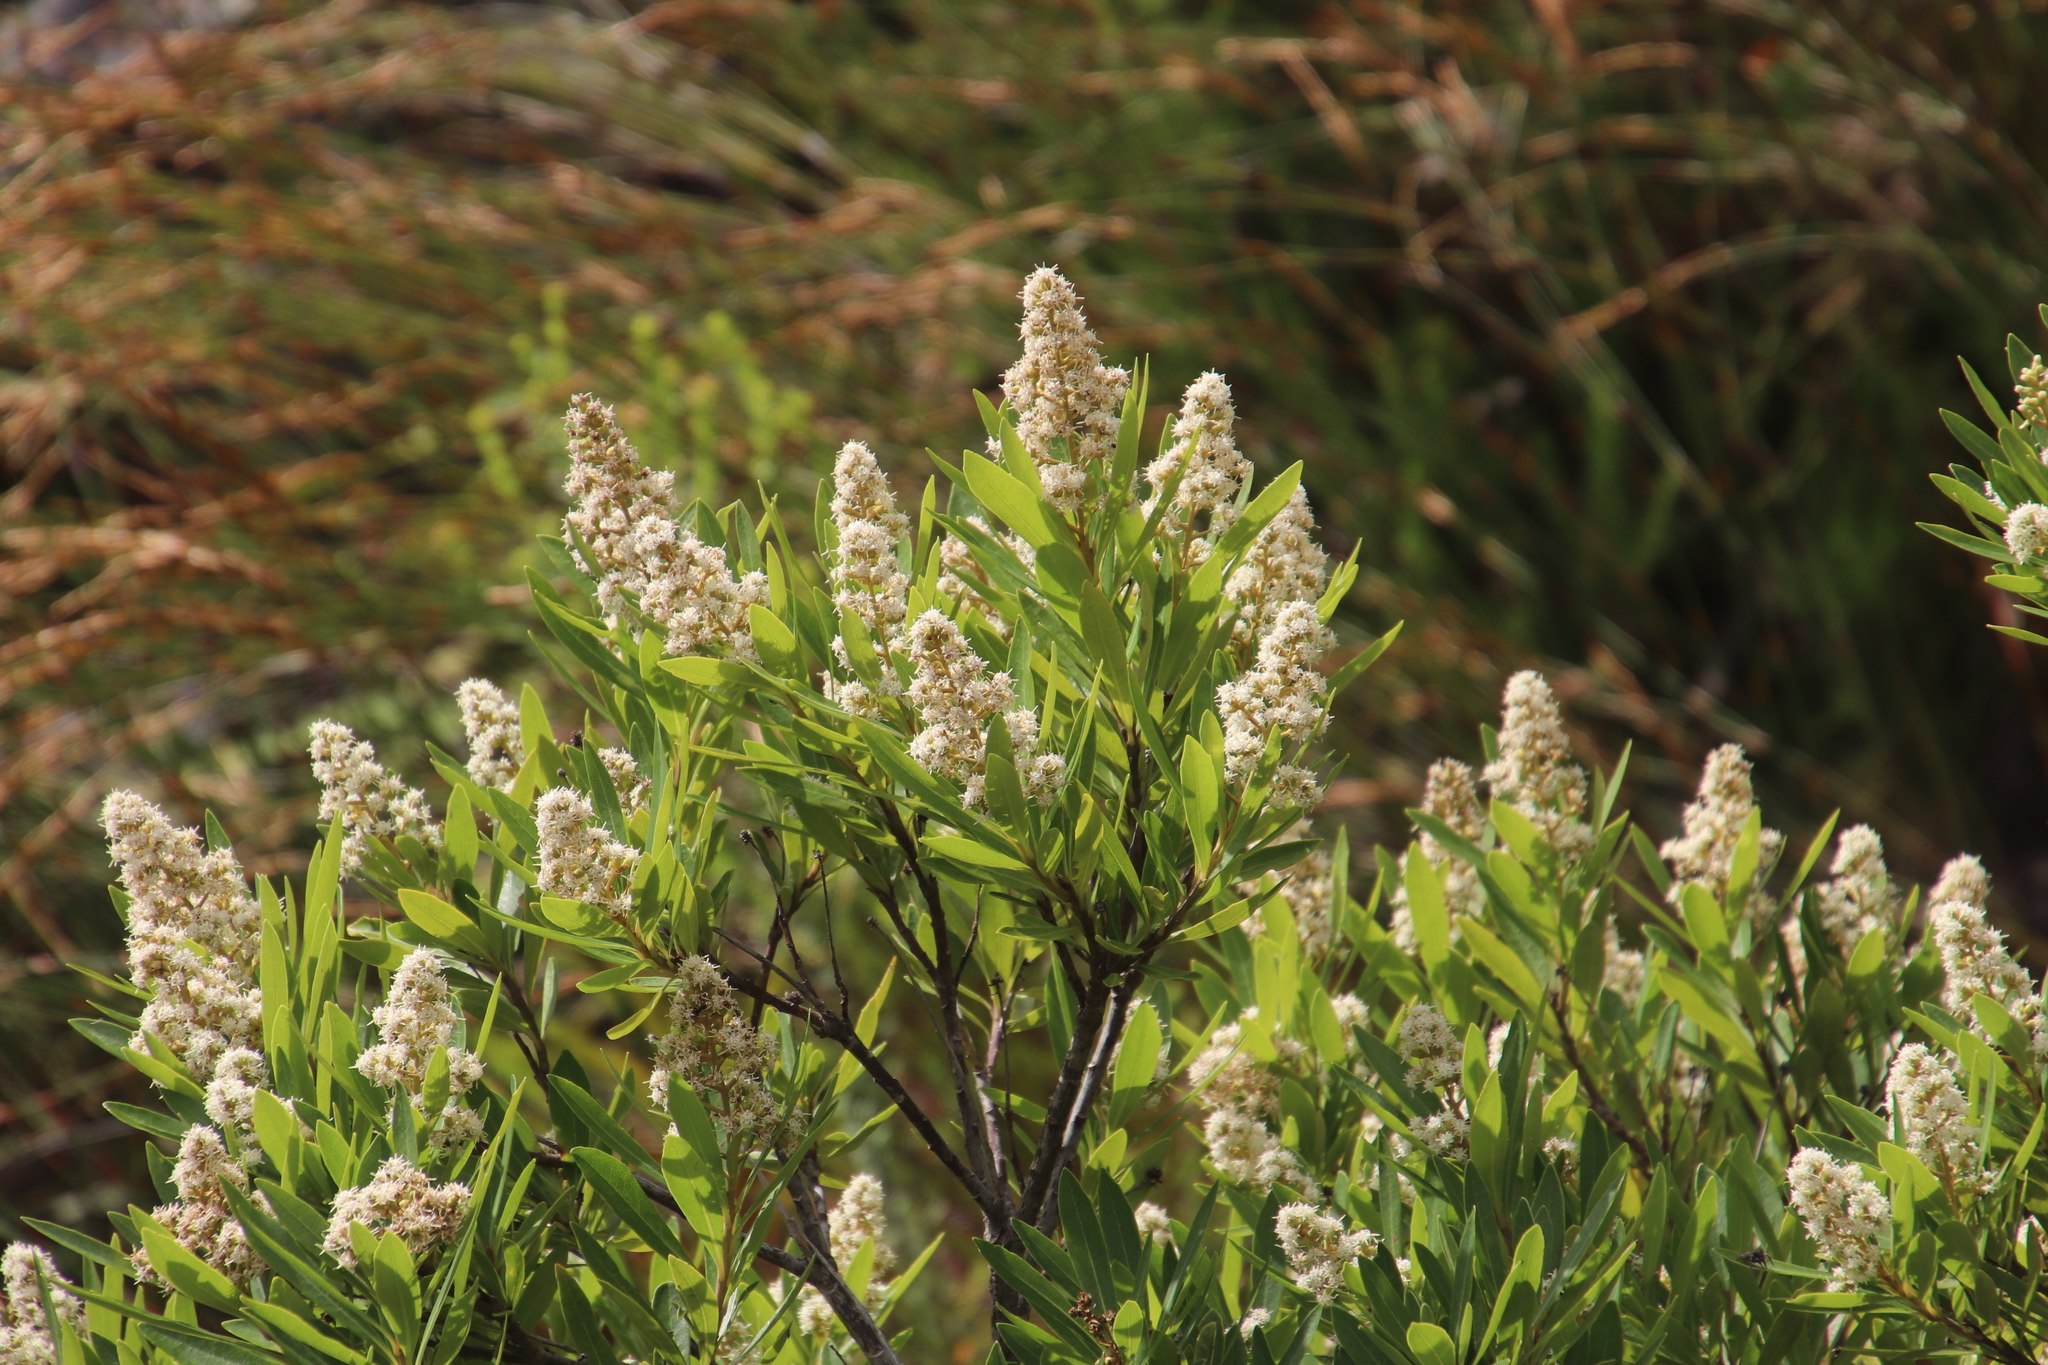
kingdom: Plantae
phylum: Tracheophyta
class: Magnoliopsida
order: Asterales
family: Asteraceae
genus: Brachylaena
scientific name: Brachylaena neriifolia
